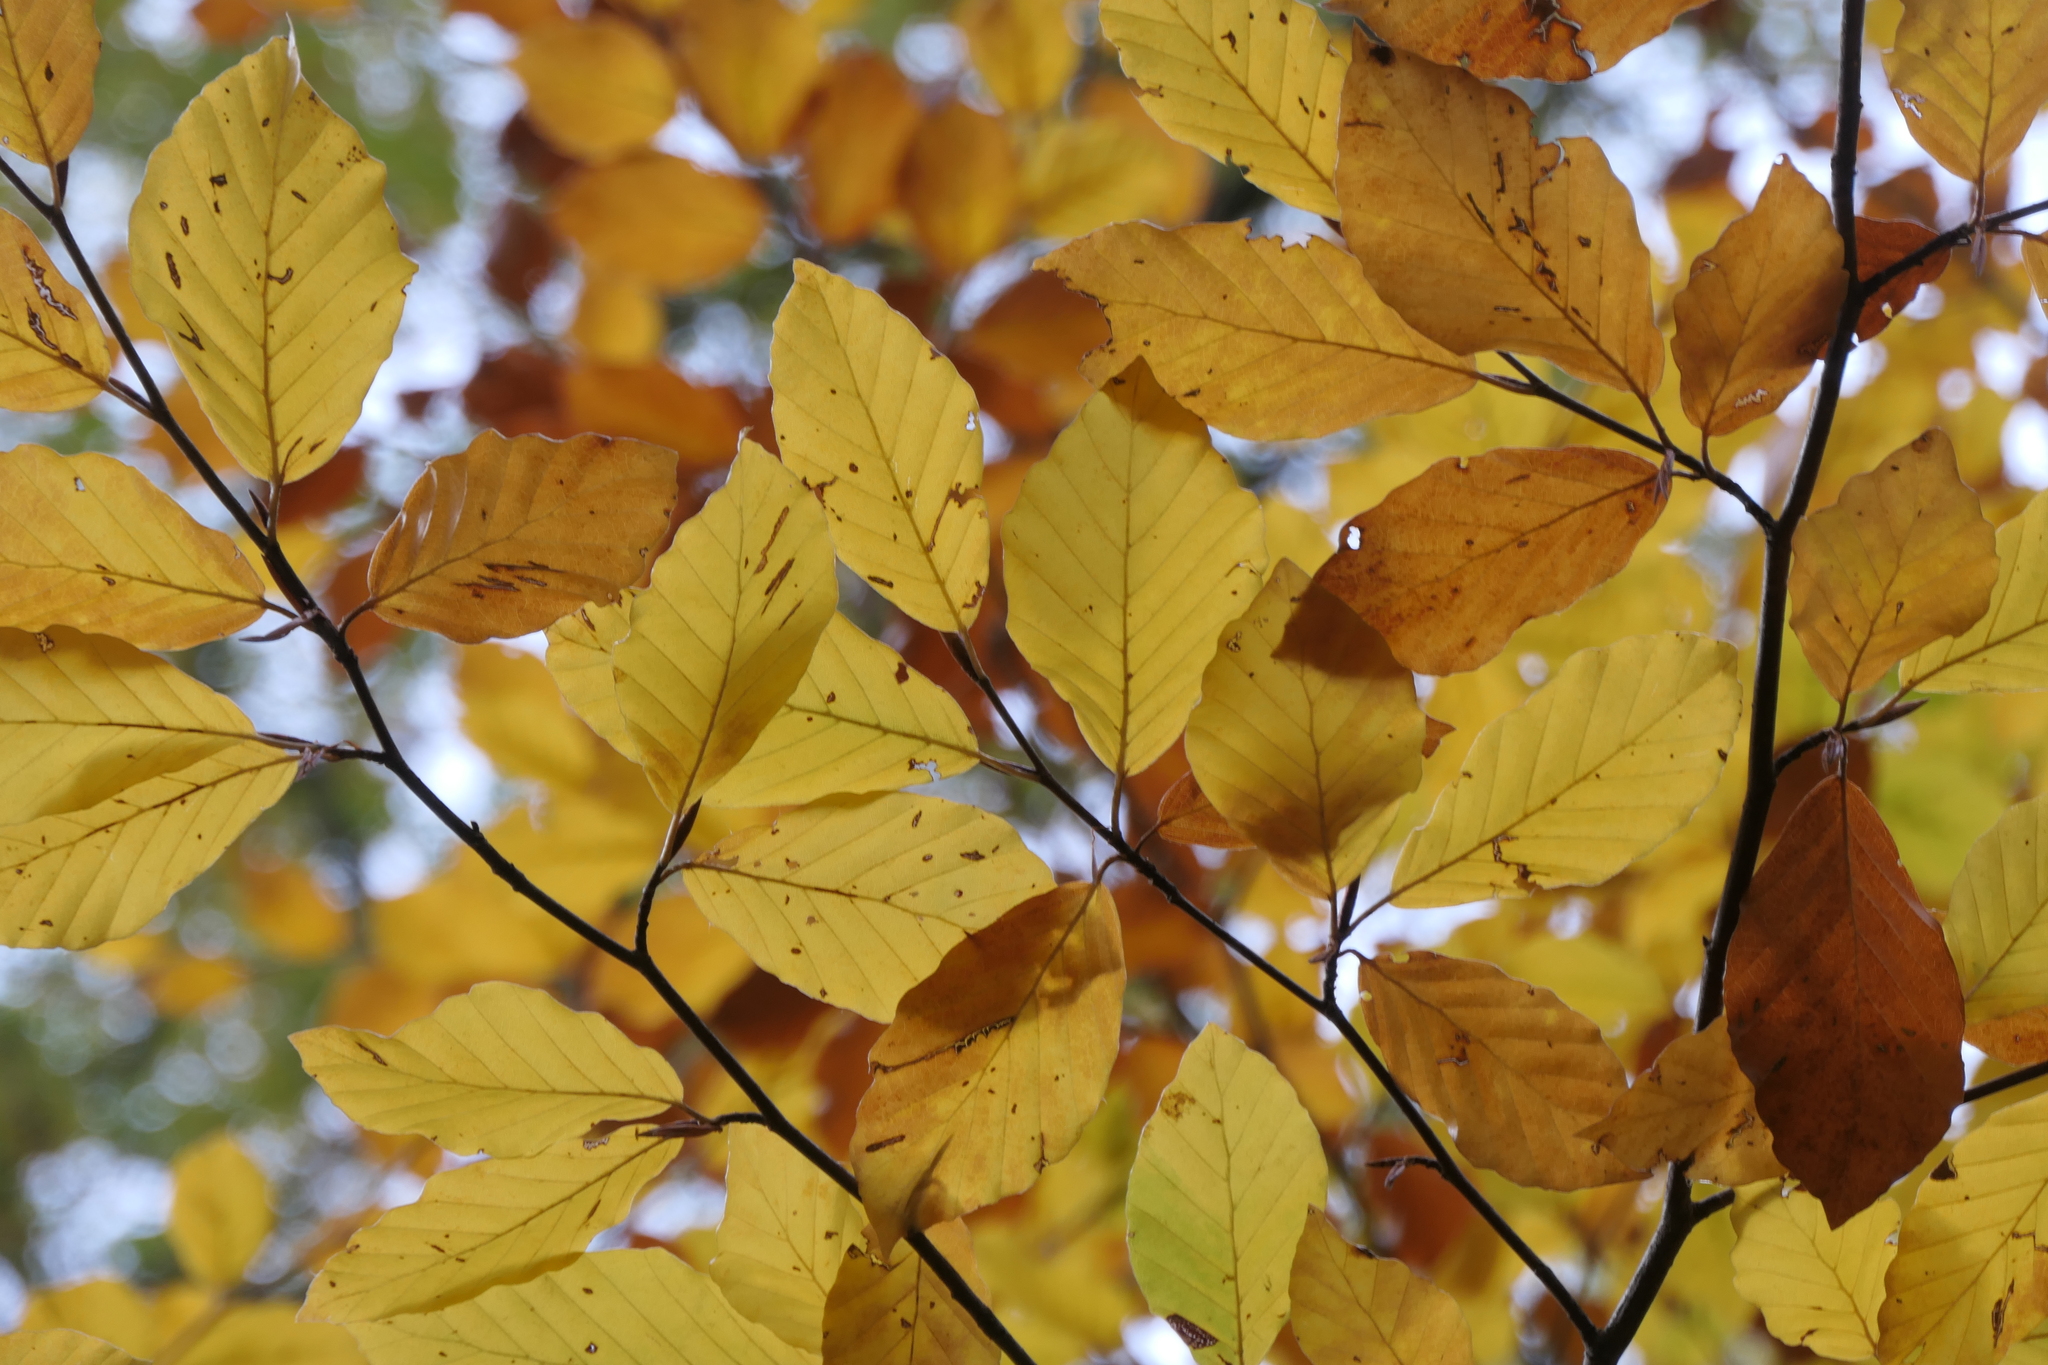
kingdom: Plantae
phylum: Tracheophyta
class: Magnoliopsida
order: Fagales
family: Fagaceae
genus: Fagus
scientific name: Fagus sylvatica
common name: Beech
